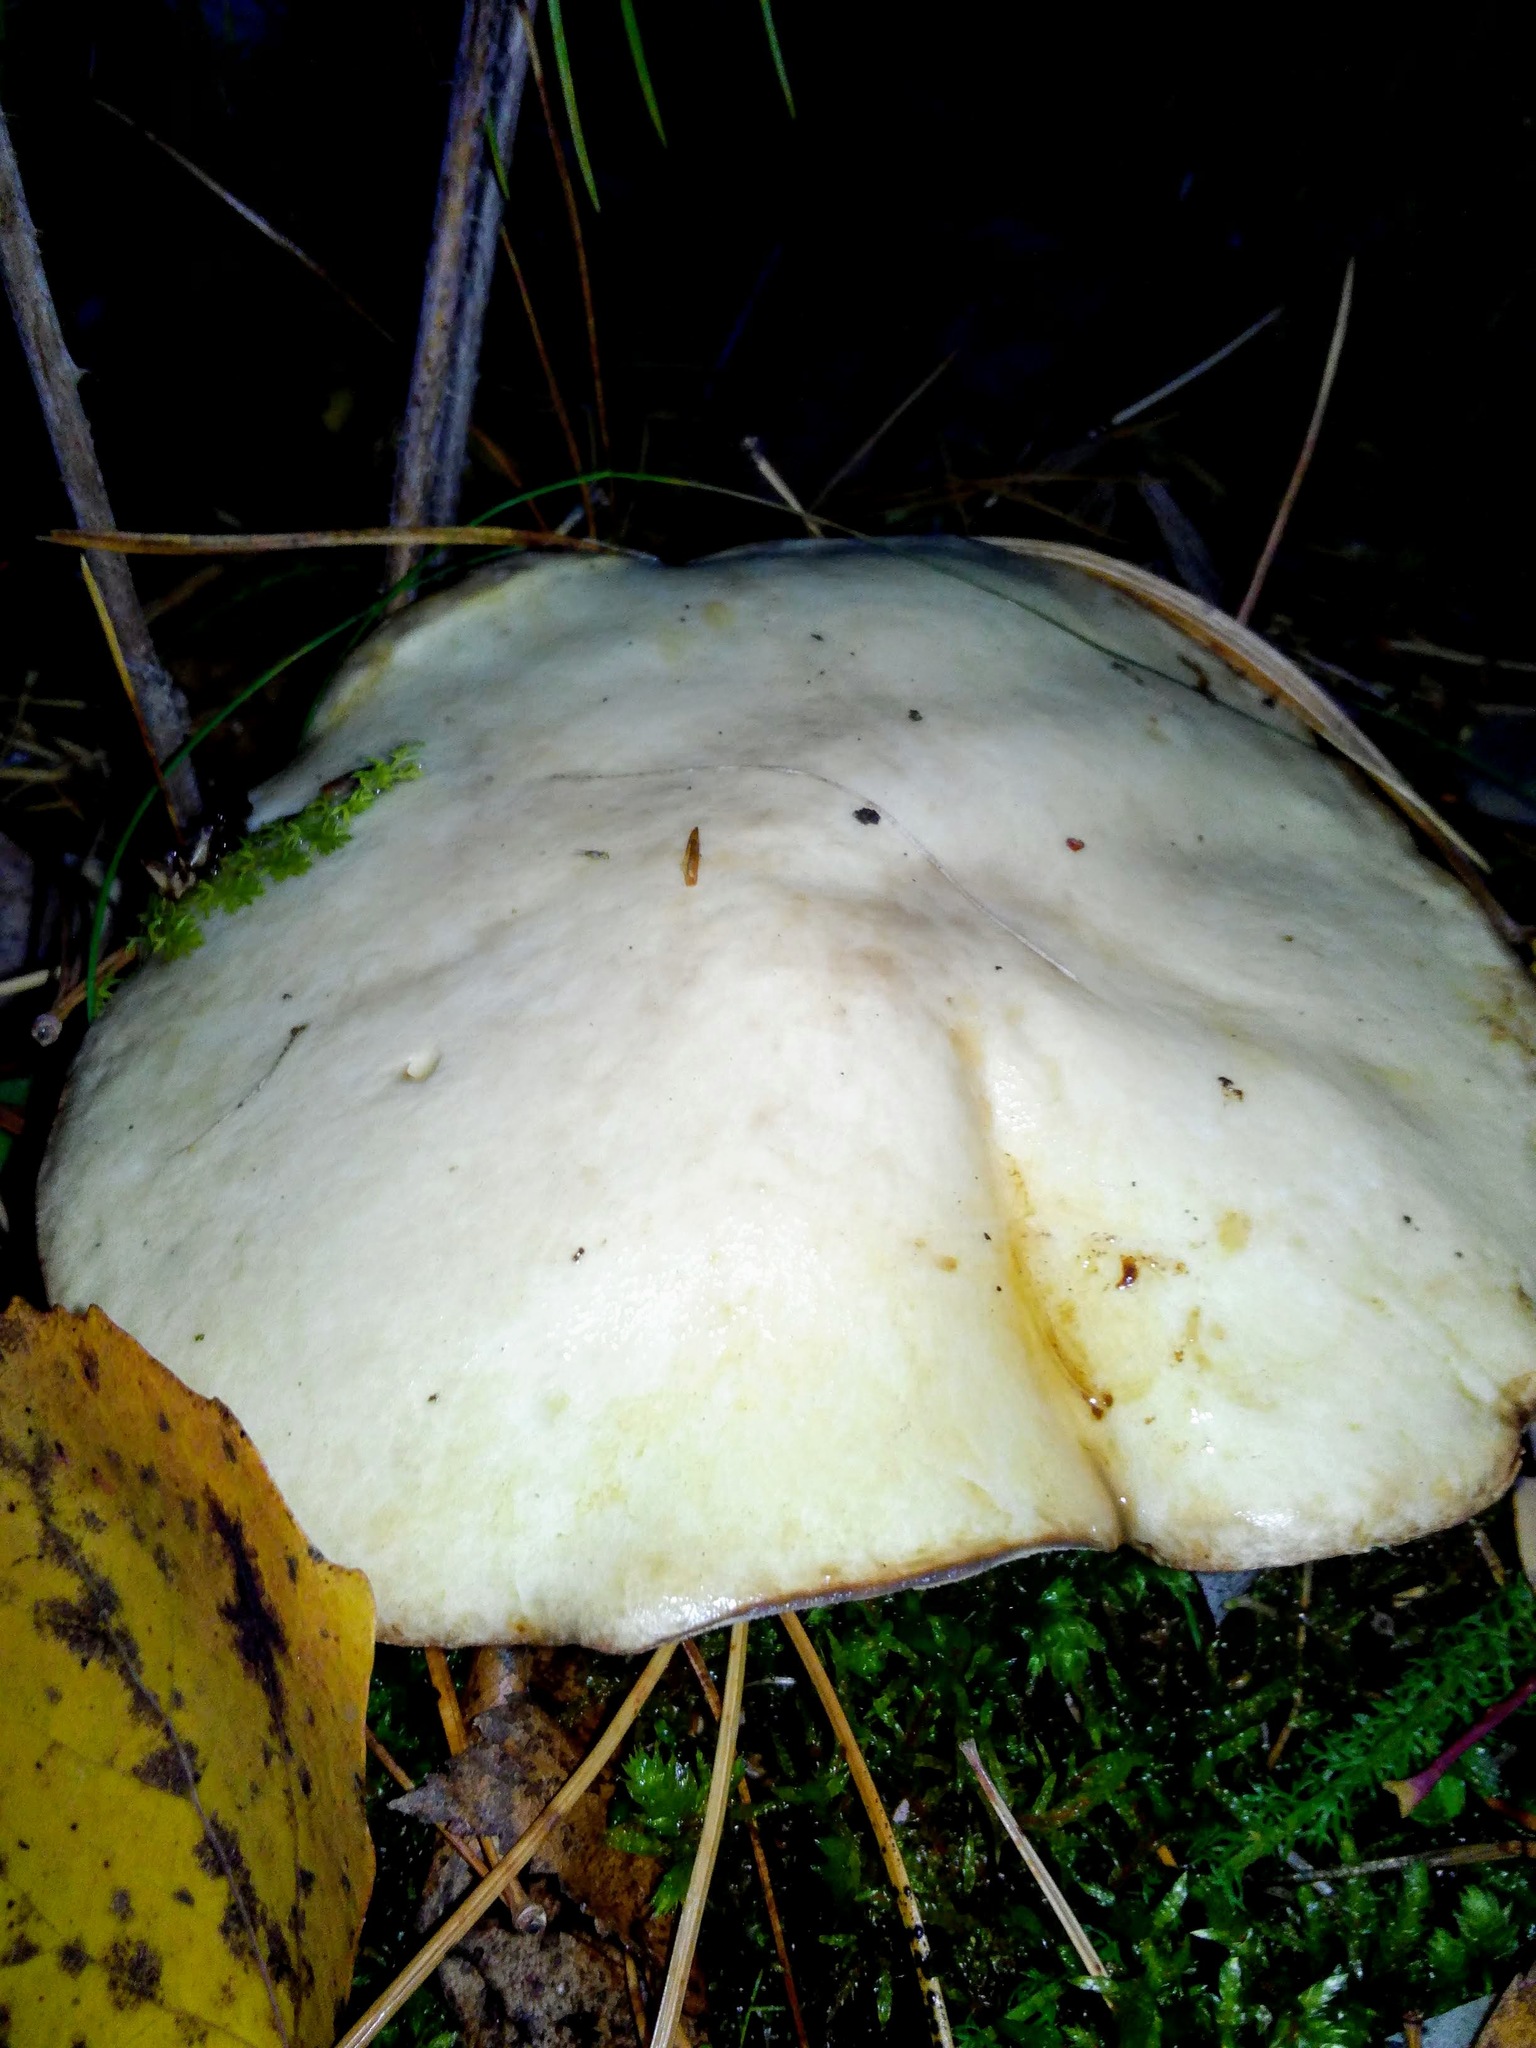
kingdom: Fungi
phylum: Basidiomycota
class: Agaricomycetes
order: Boletales
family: Suillaceae
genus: Suillus
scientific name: Suillus placidus
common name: Slippery white bolete
